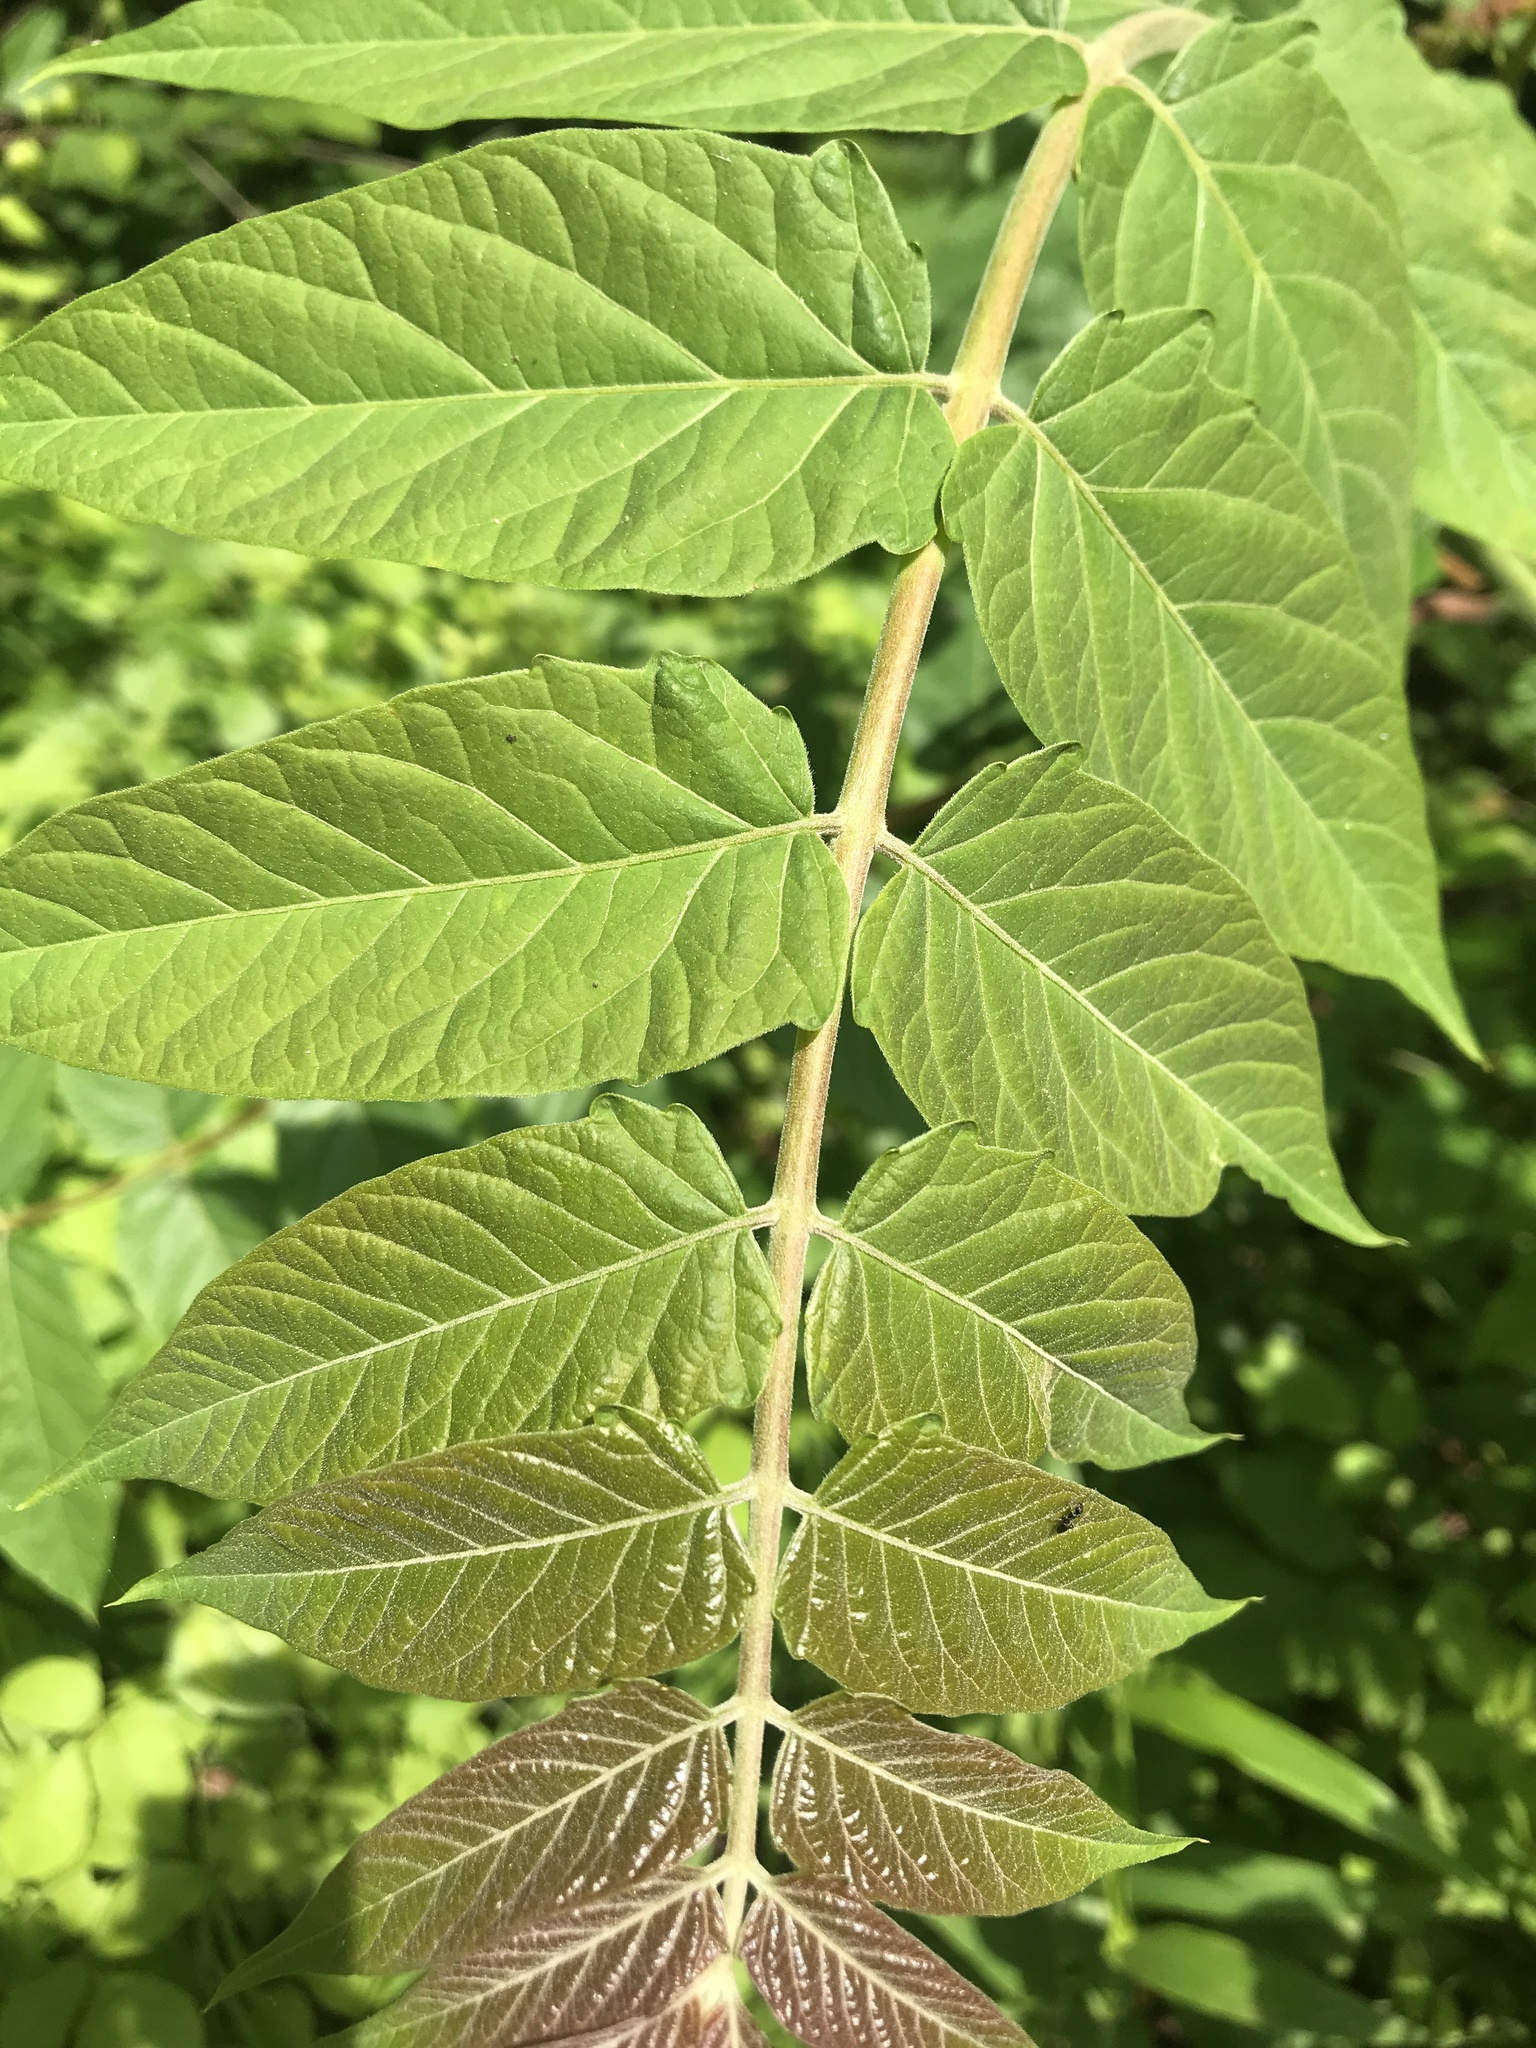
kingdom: Plantae
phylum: Tracheophyta
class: Magnoliopsida
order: Sapindales
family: Simaroubaceae
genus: Ailanthus
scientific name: Ailanthus altissima
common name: Tree-of-heaven
